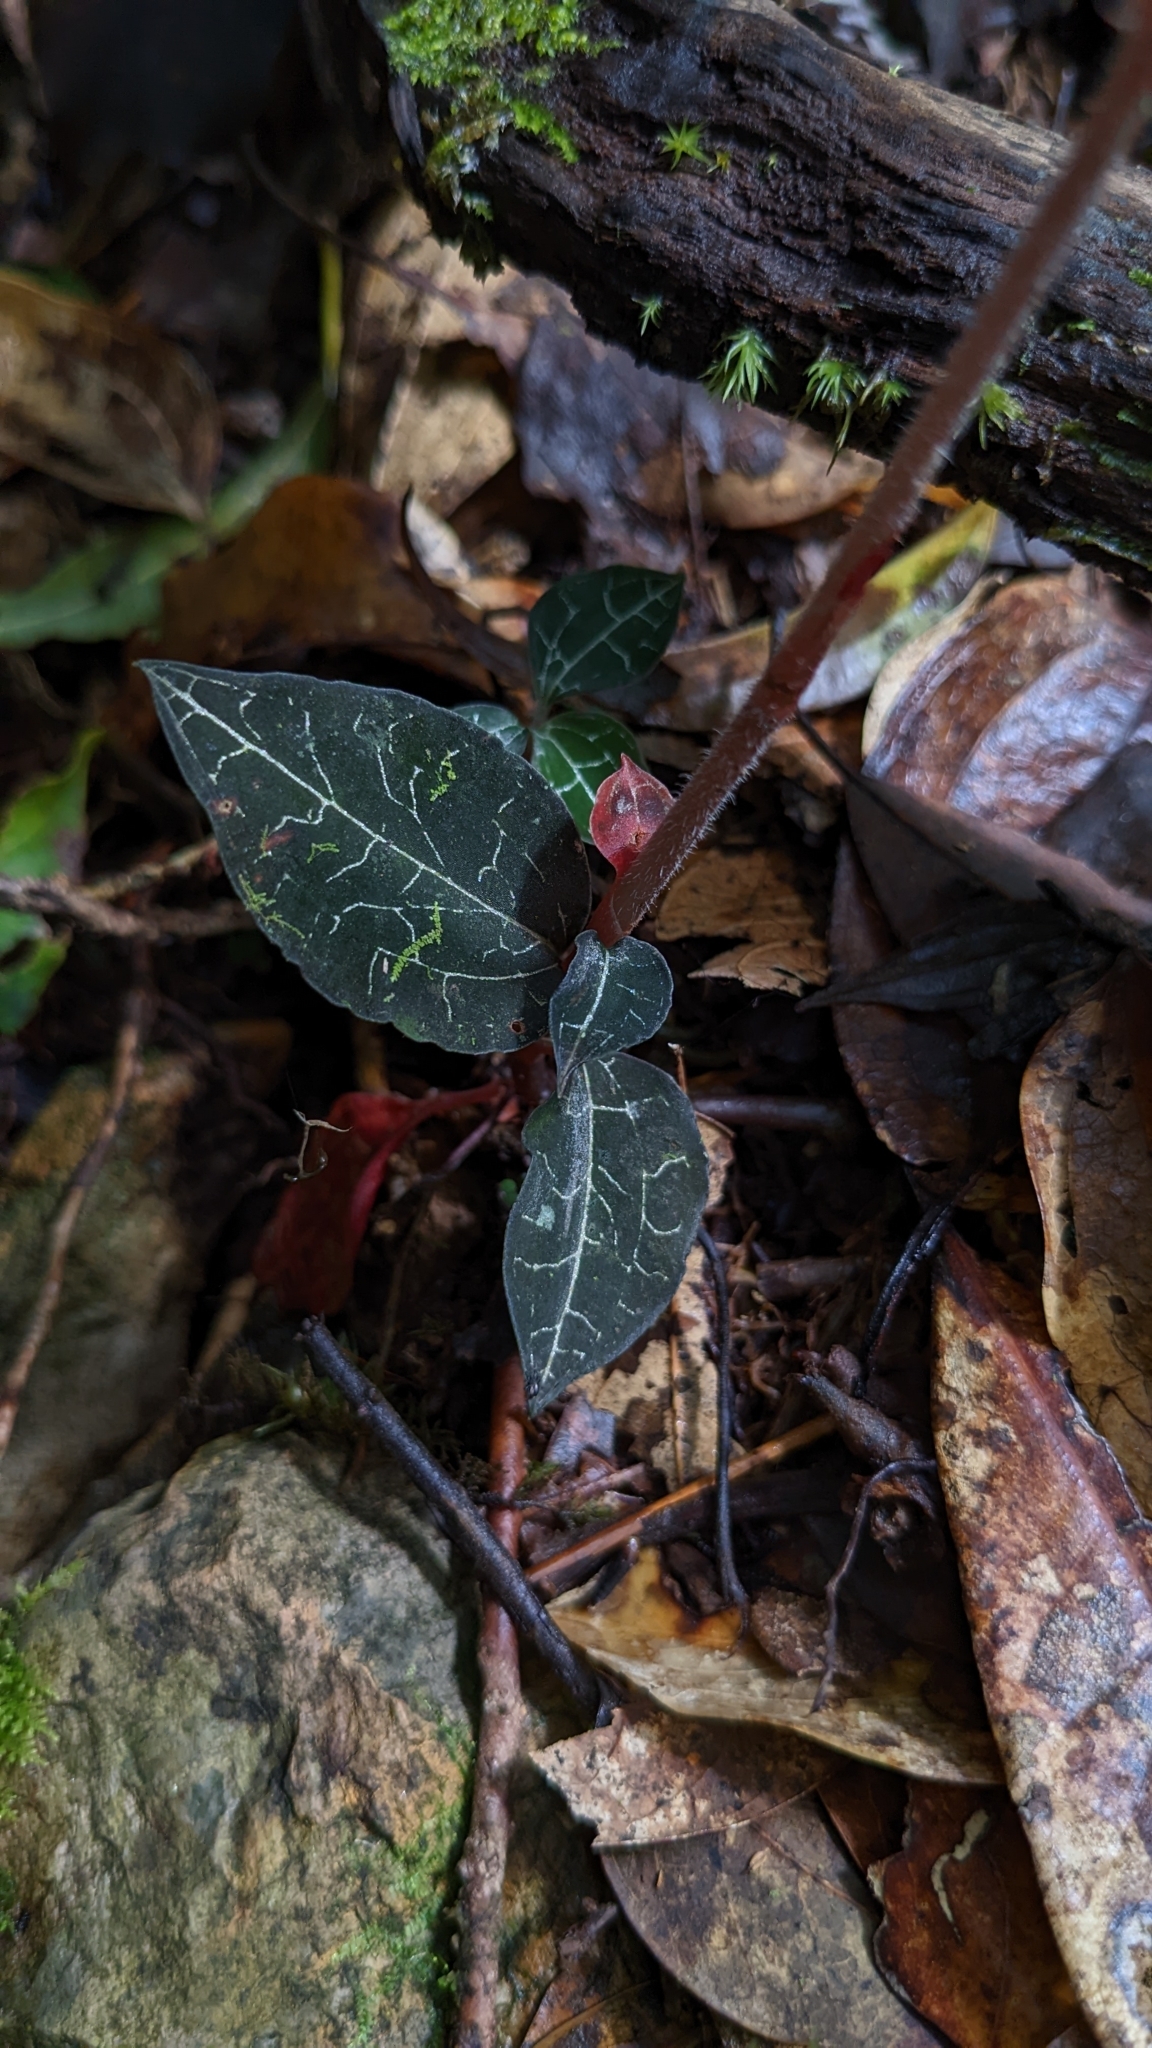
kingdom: Plantae
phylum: Tracheophyta
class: Liliopsida
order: Asparagales
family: Orchidaceae
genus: Anoectochilus
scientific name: Anoectochilus koshunensis
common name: Jewel orchid
